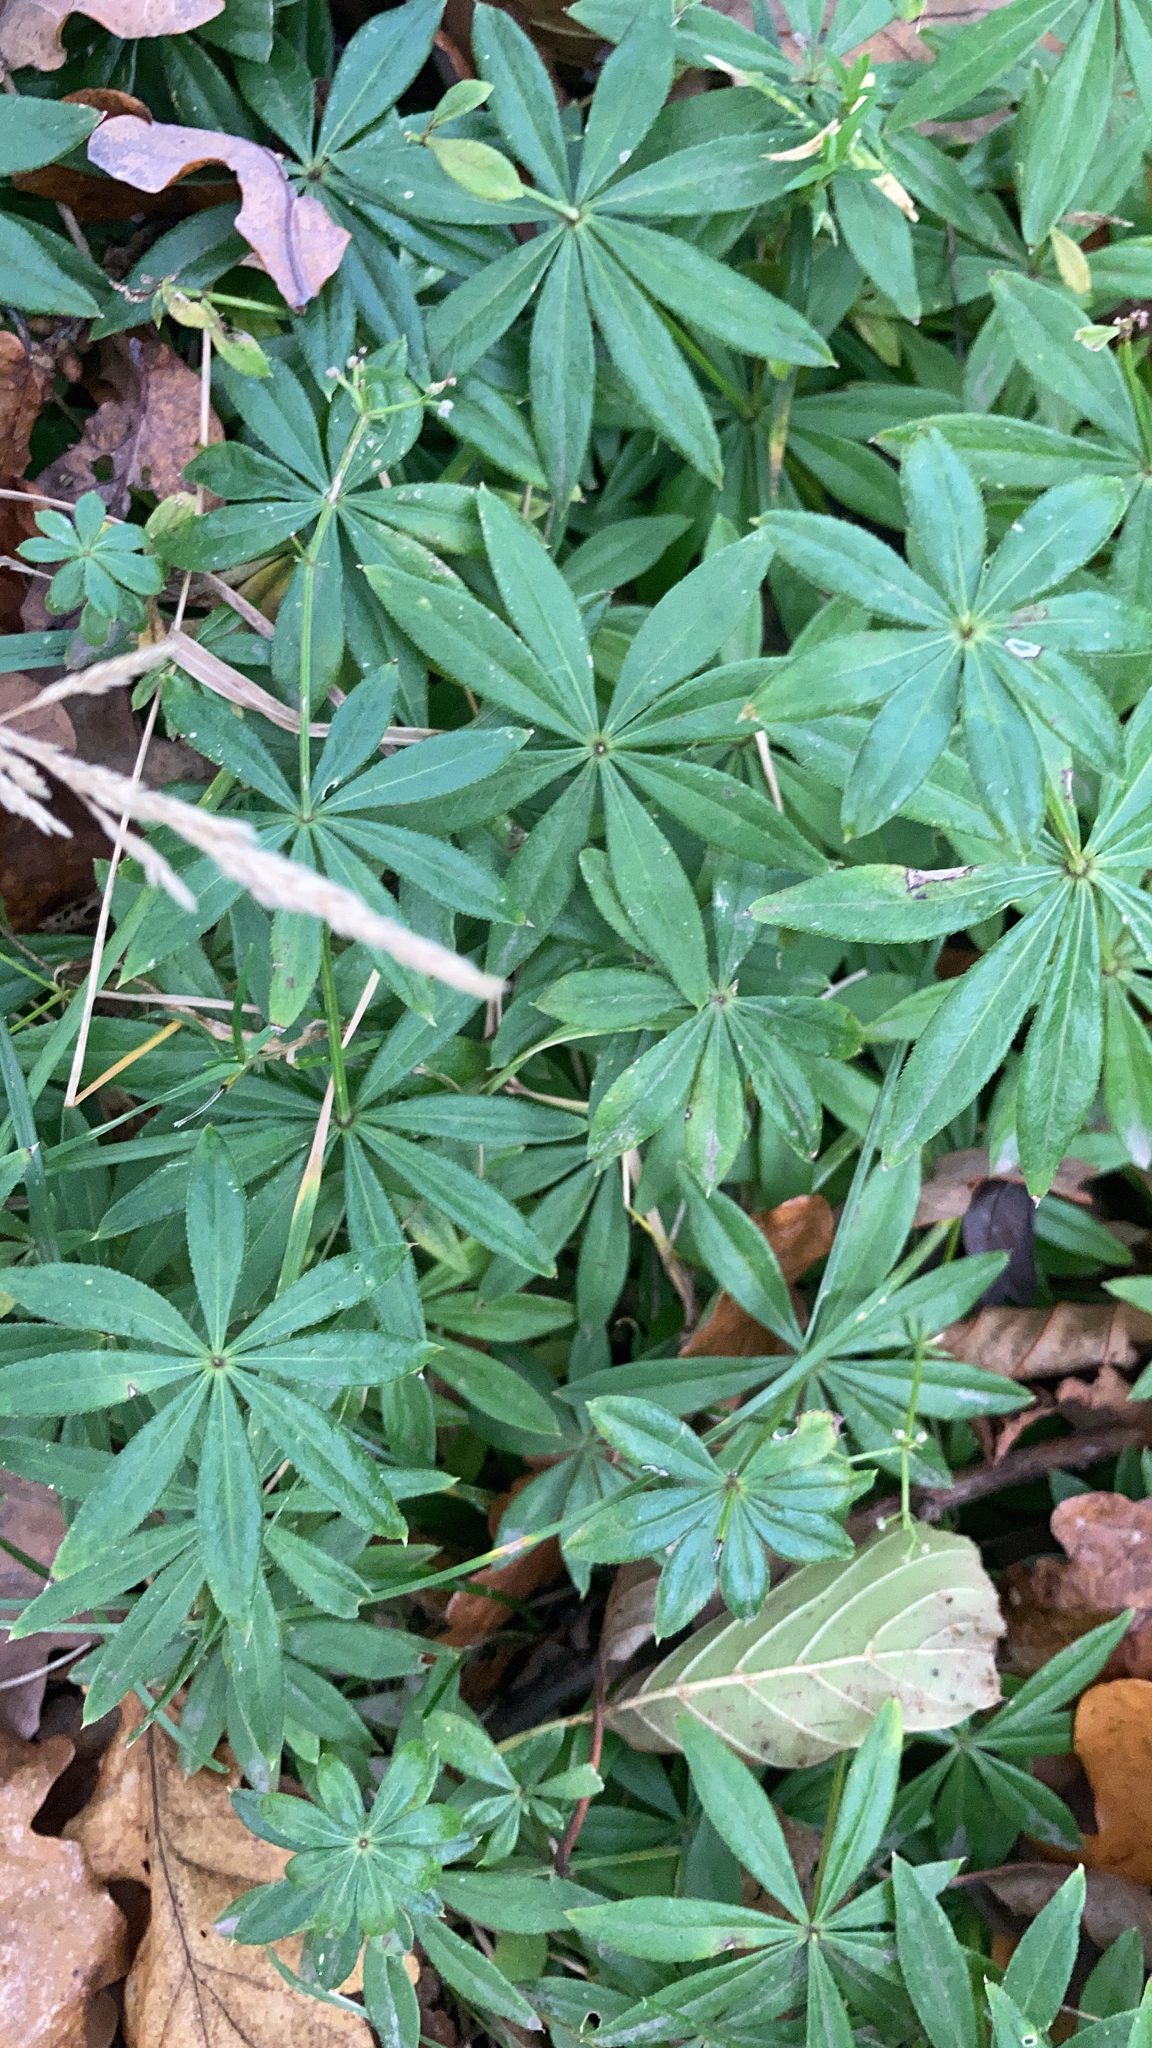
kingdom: Plantae
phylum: Tracheophyta
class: Magnoliopsida
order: Gentianales
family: Rubiaceae
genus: Galium
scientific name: Galium odoratum
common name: Sweet woodruff
